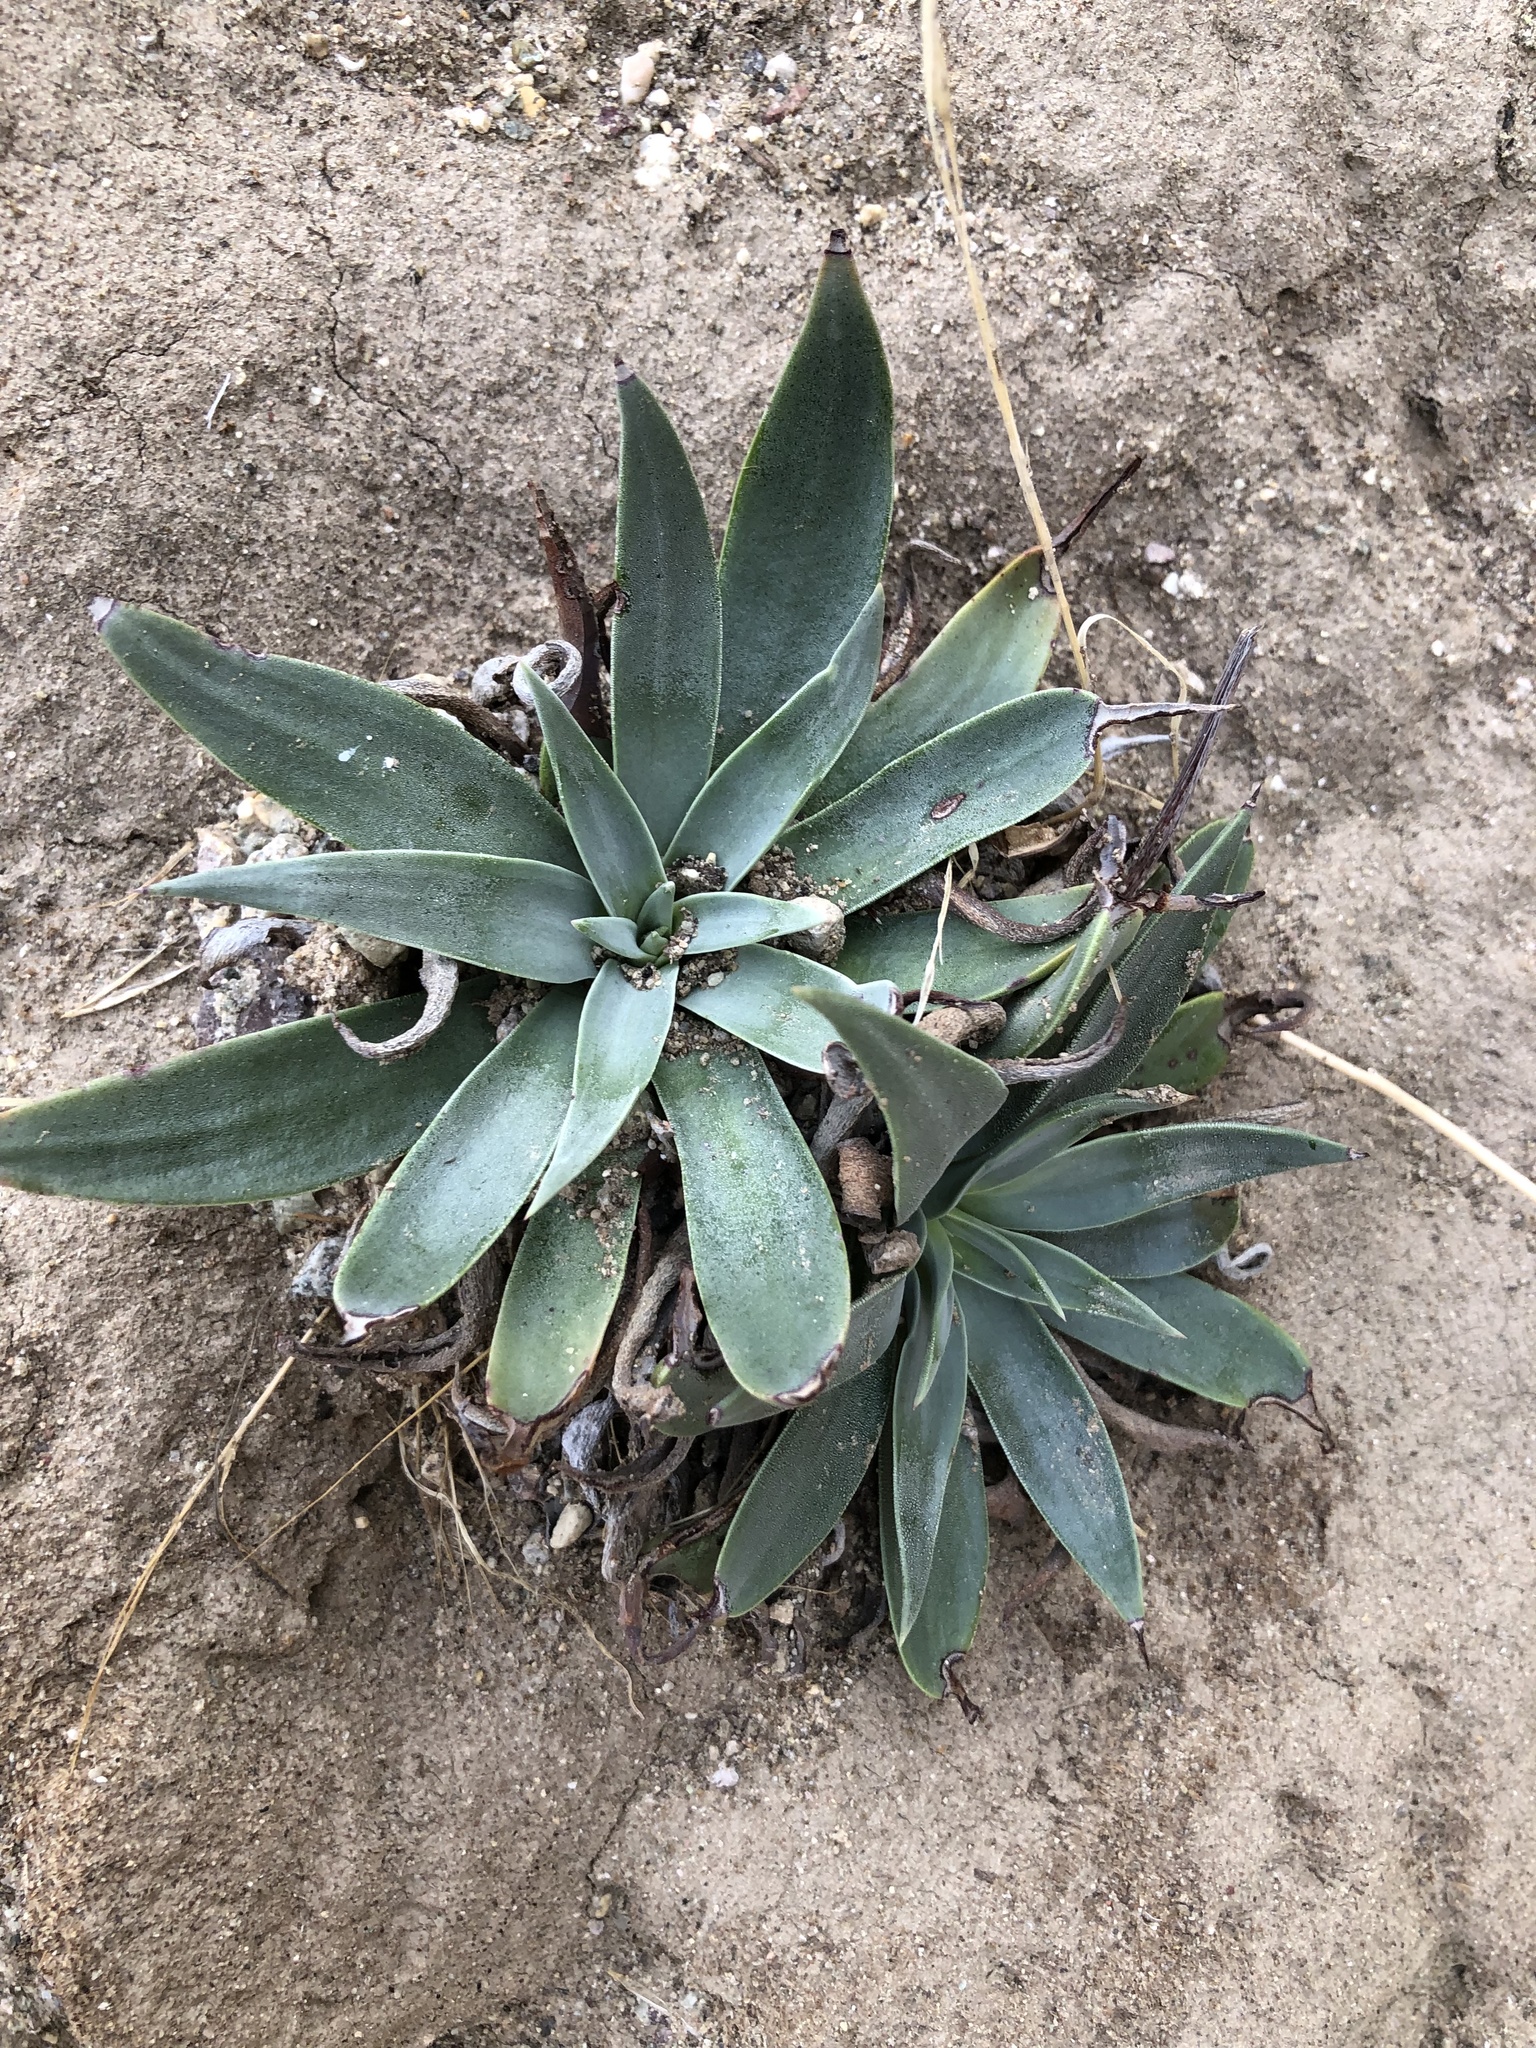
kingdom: Plantae
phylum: Tracheophyta
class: Magnoliopsida
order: Saxifragales
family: Crassulaceae
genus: Dudleya
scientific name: Dudleya lanceolata
